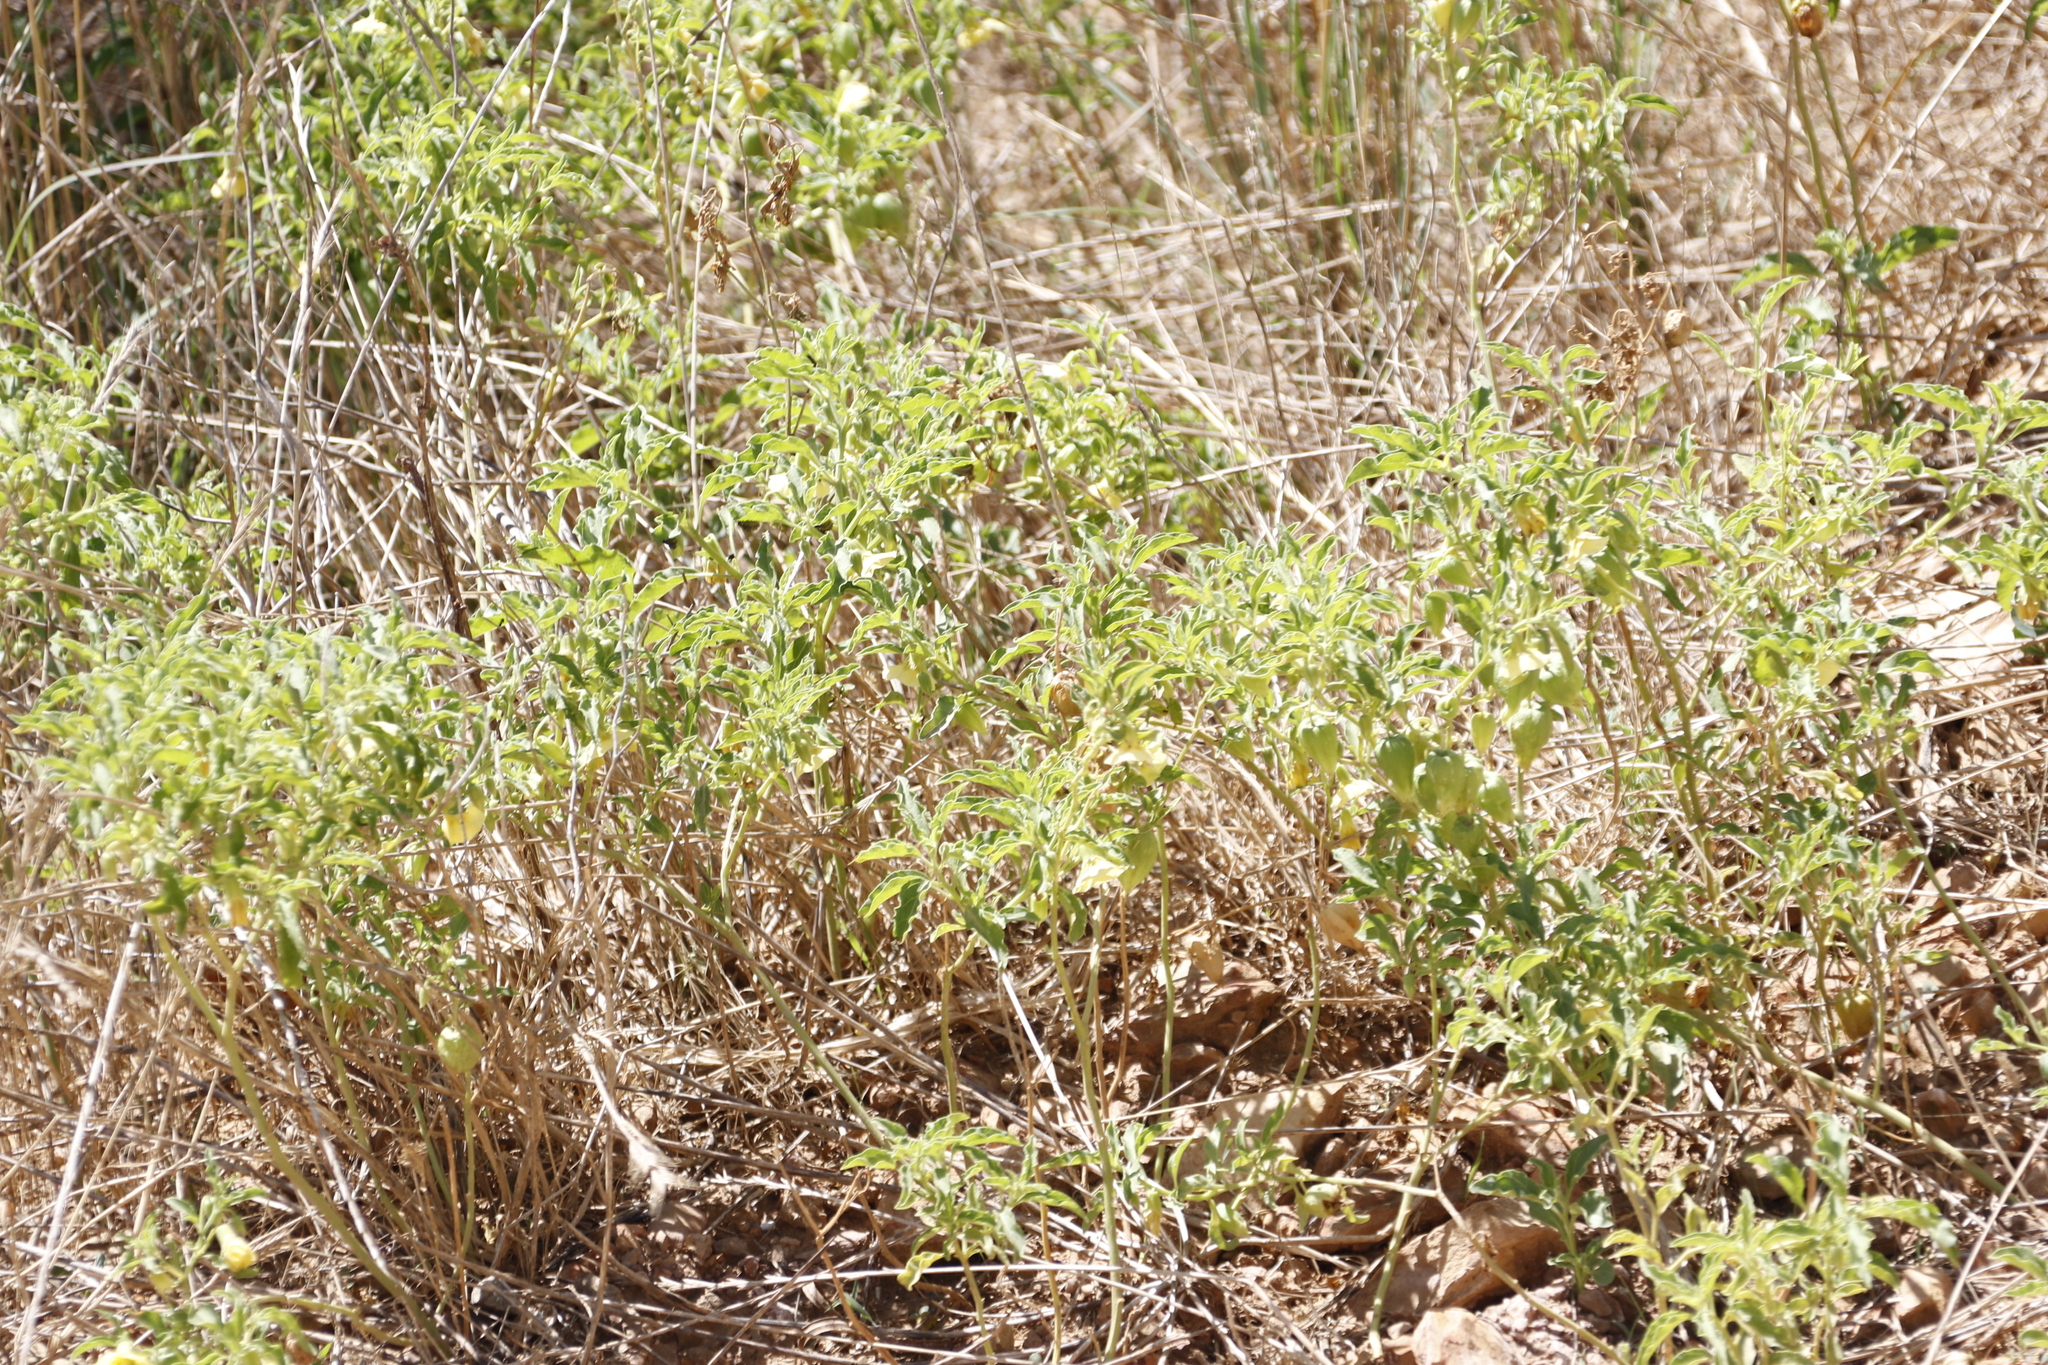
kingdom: Plantae
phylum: Tracheophyta
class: Magnoliopsida
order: Solanales
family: Solanaceae
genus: Physalis
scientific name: Physalis viscosa
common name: Stellate ground-cherry
